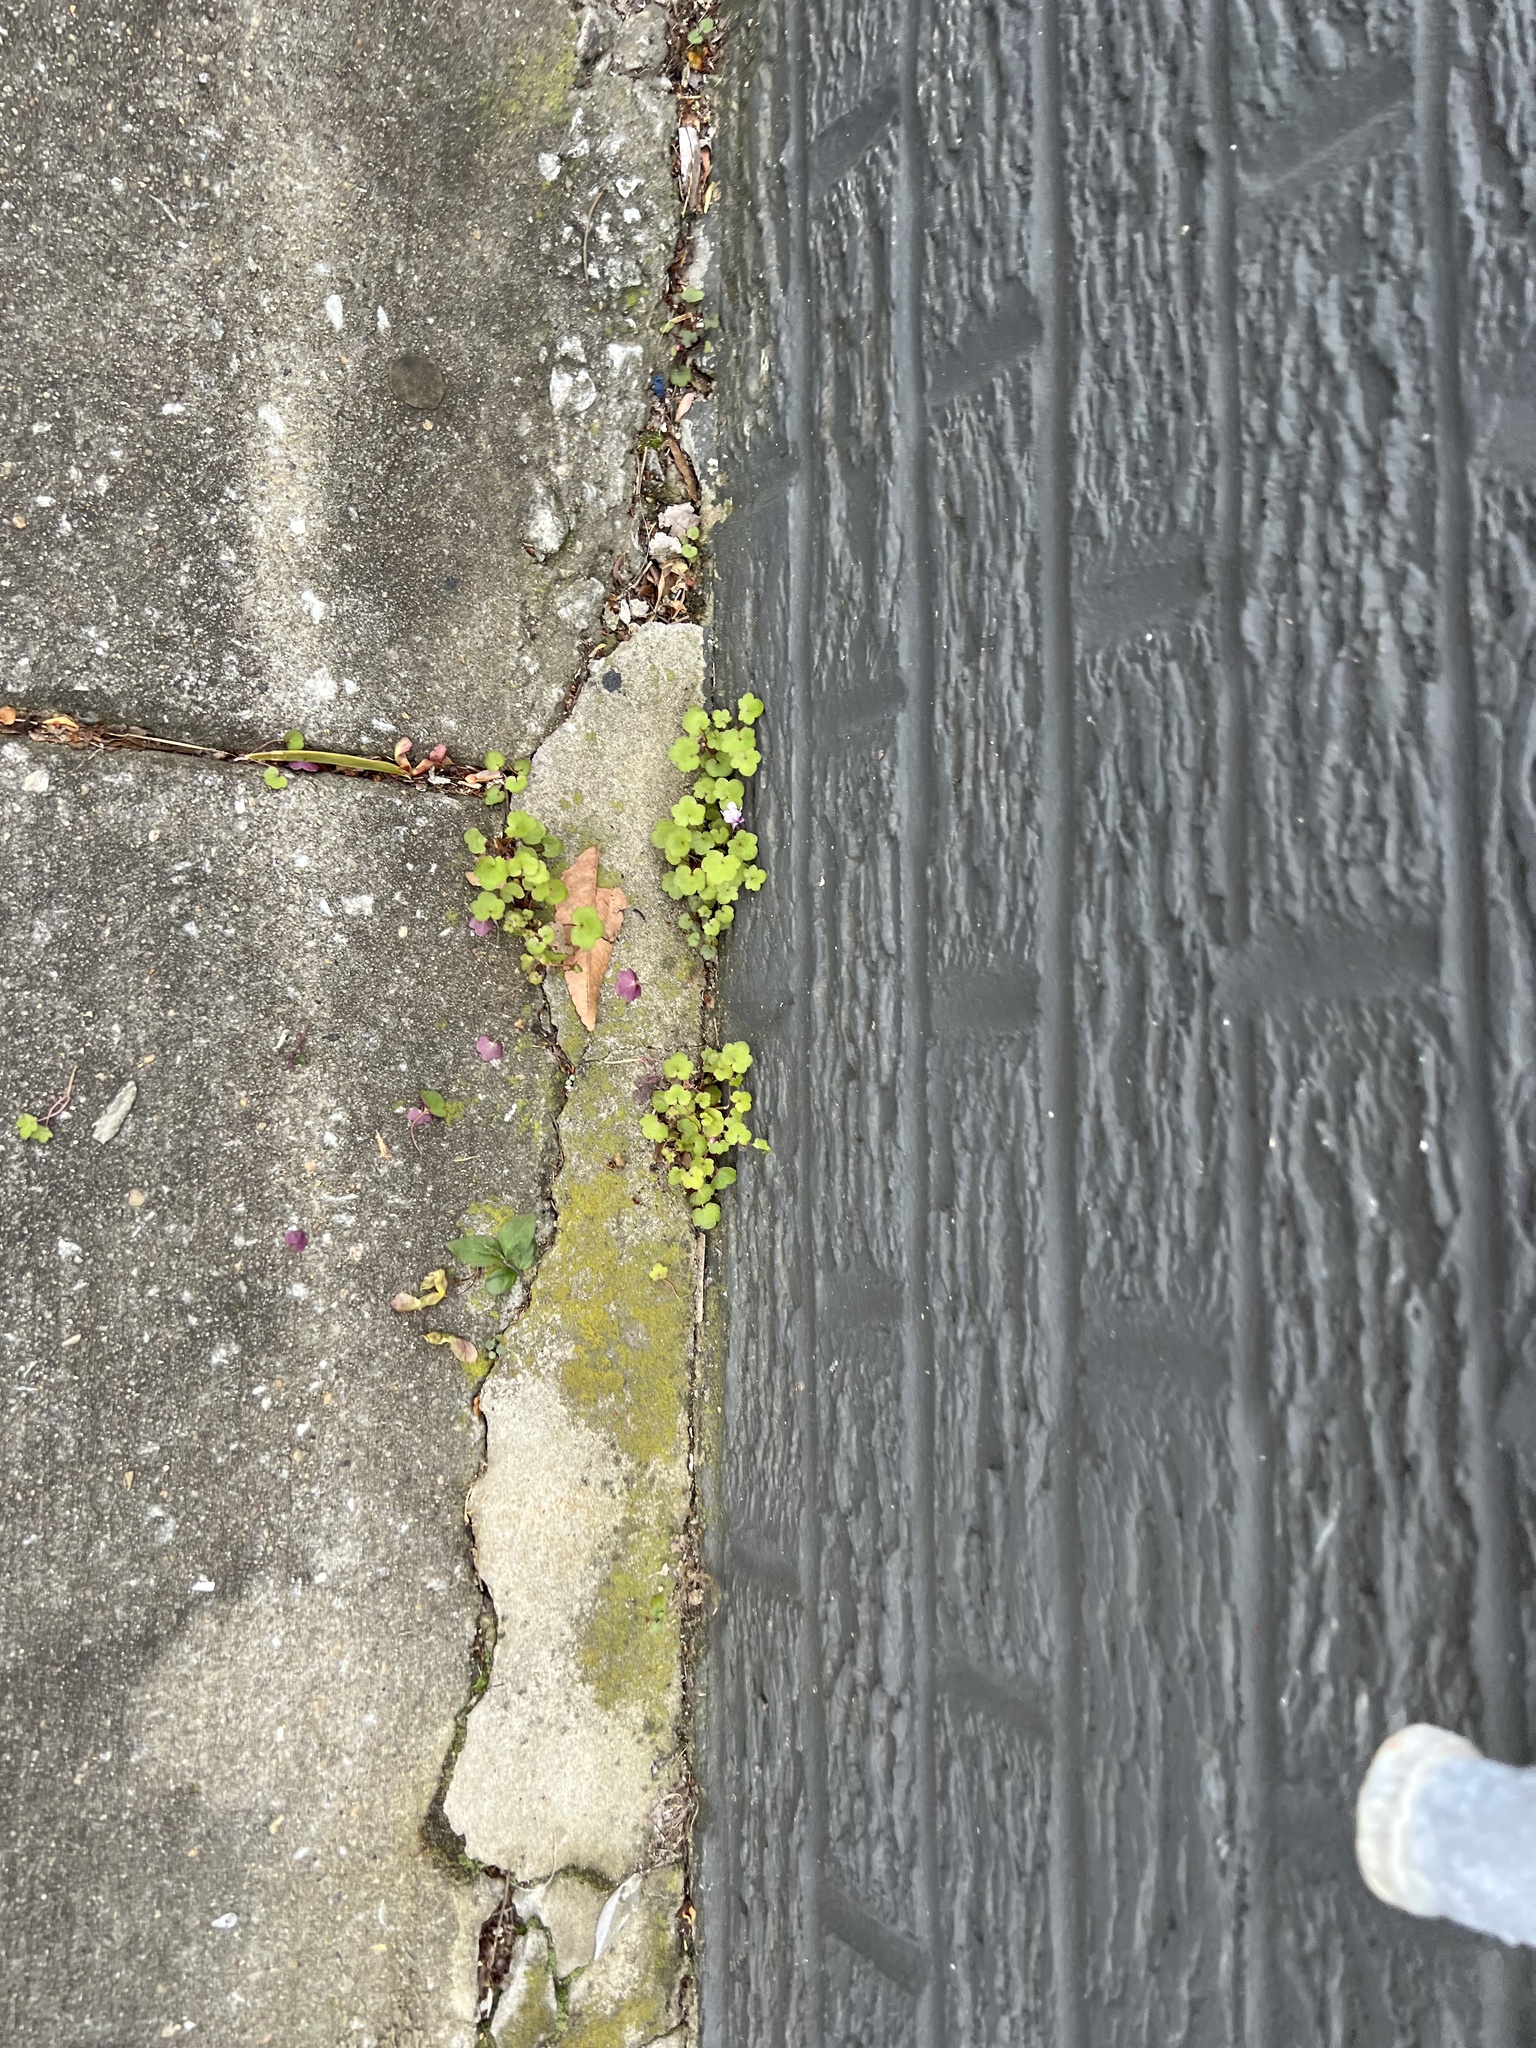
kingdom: Plantae
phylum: Tracheophyta
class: Magnoliopsida
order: Lamiales
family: Plantaginaceae
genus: Cymbalaria
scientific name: Cymbalaria muralis
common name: Ivy-leaved toadflax
